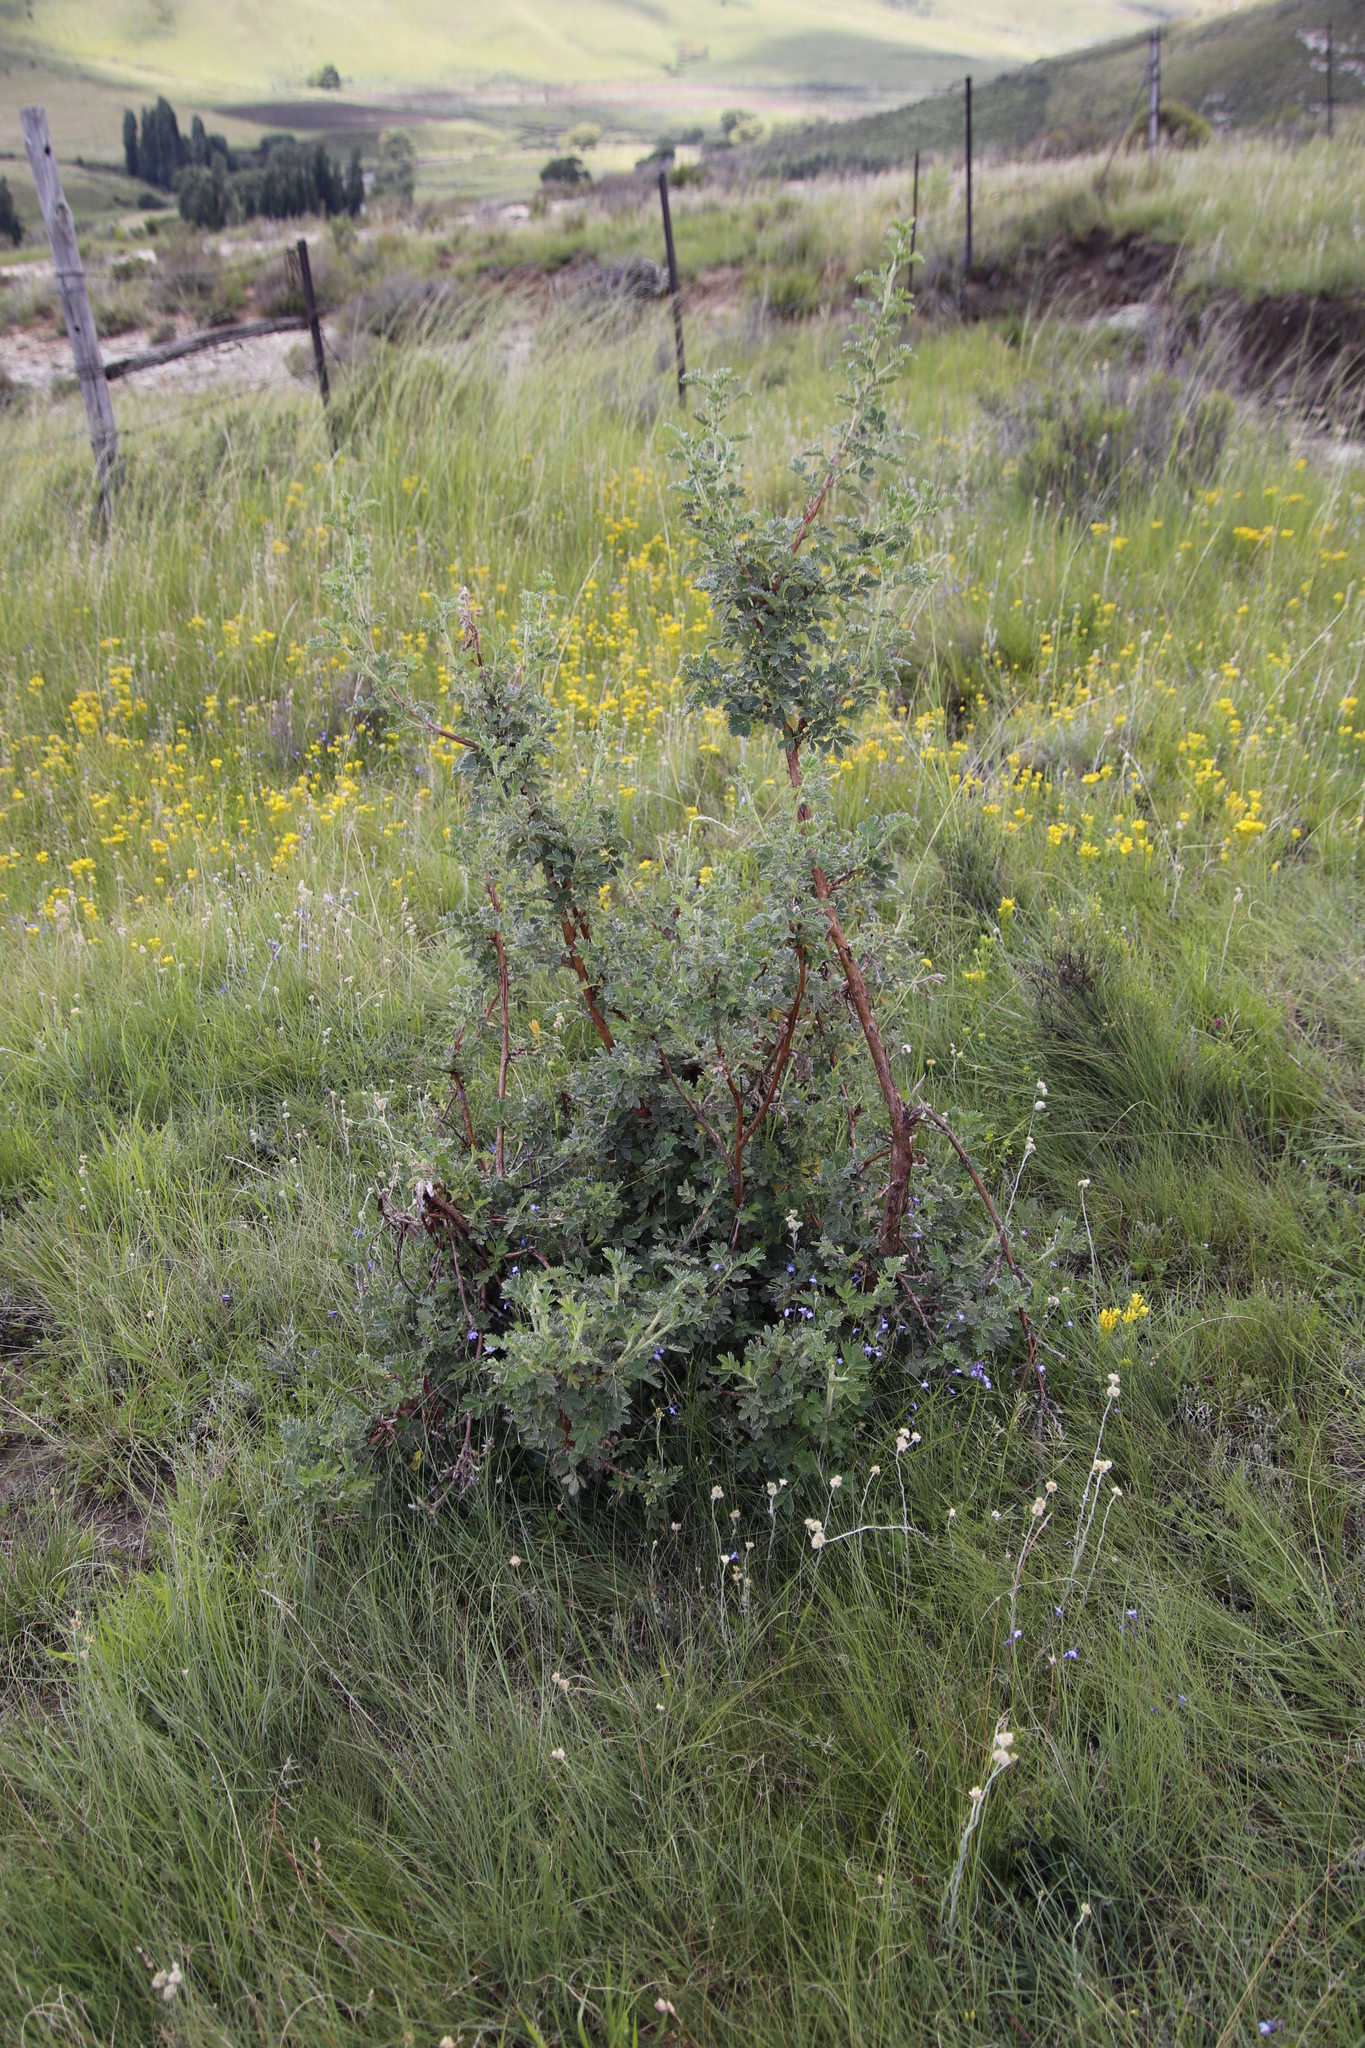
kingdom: Plantae
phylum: Tracheophyta
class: Magnoliopsida
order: Rosales
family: Rosaceae
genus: Leucosidea
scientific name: Leucosidea sericea
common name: Oldwood
